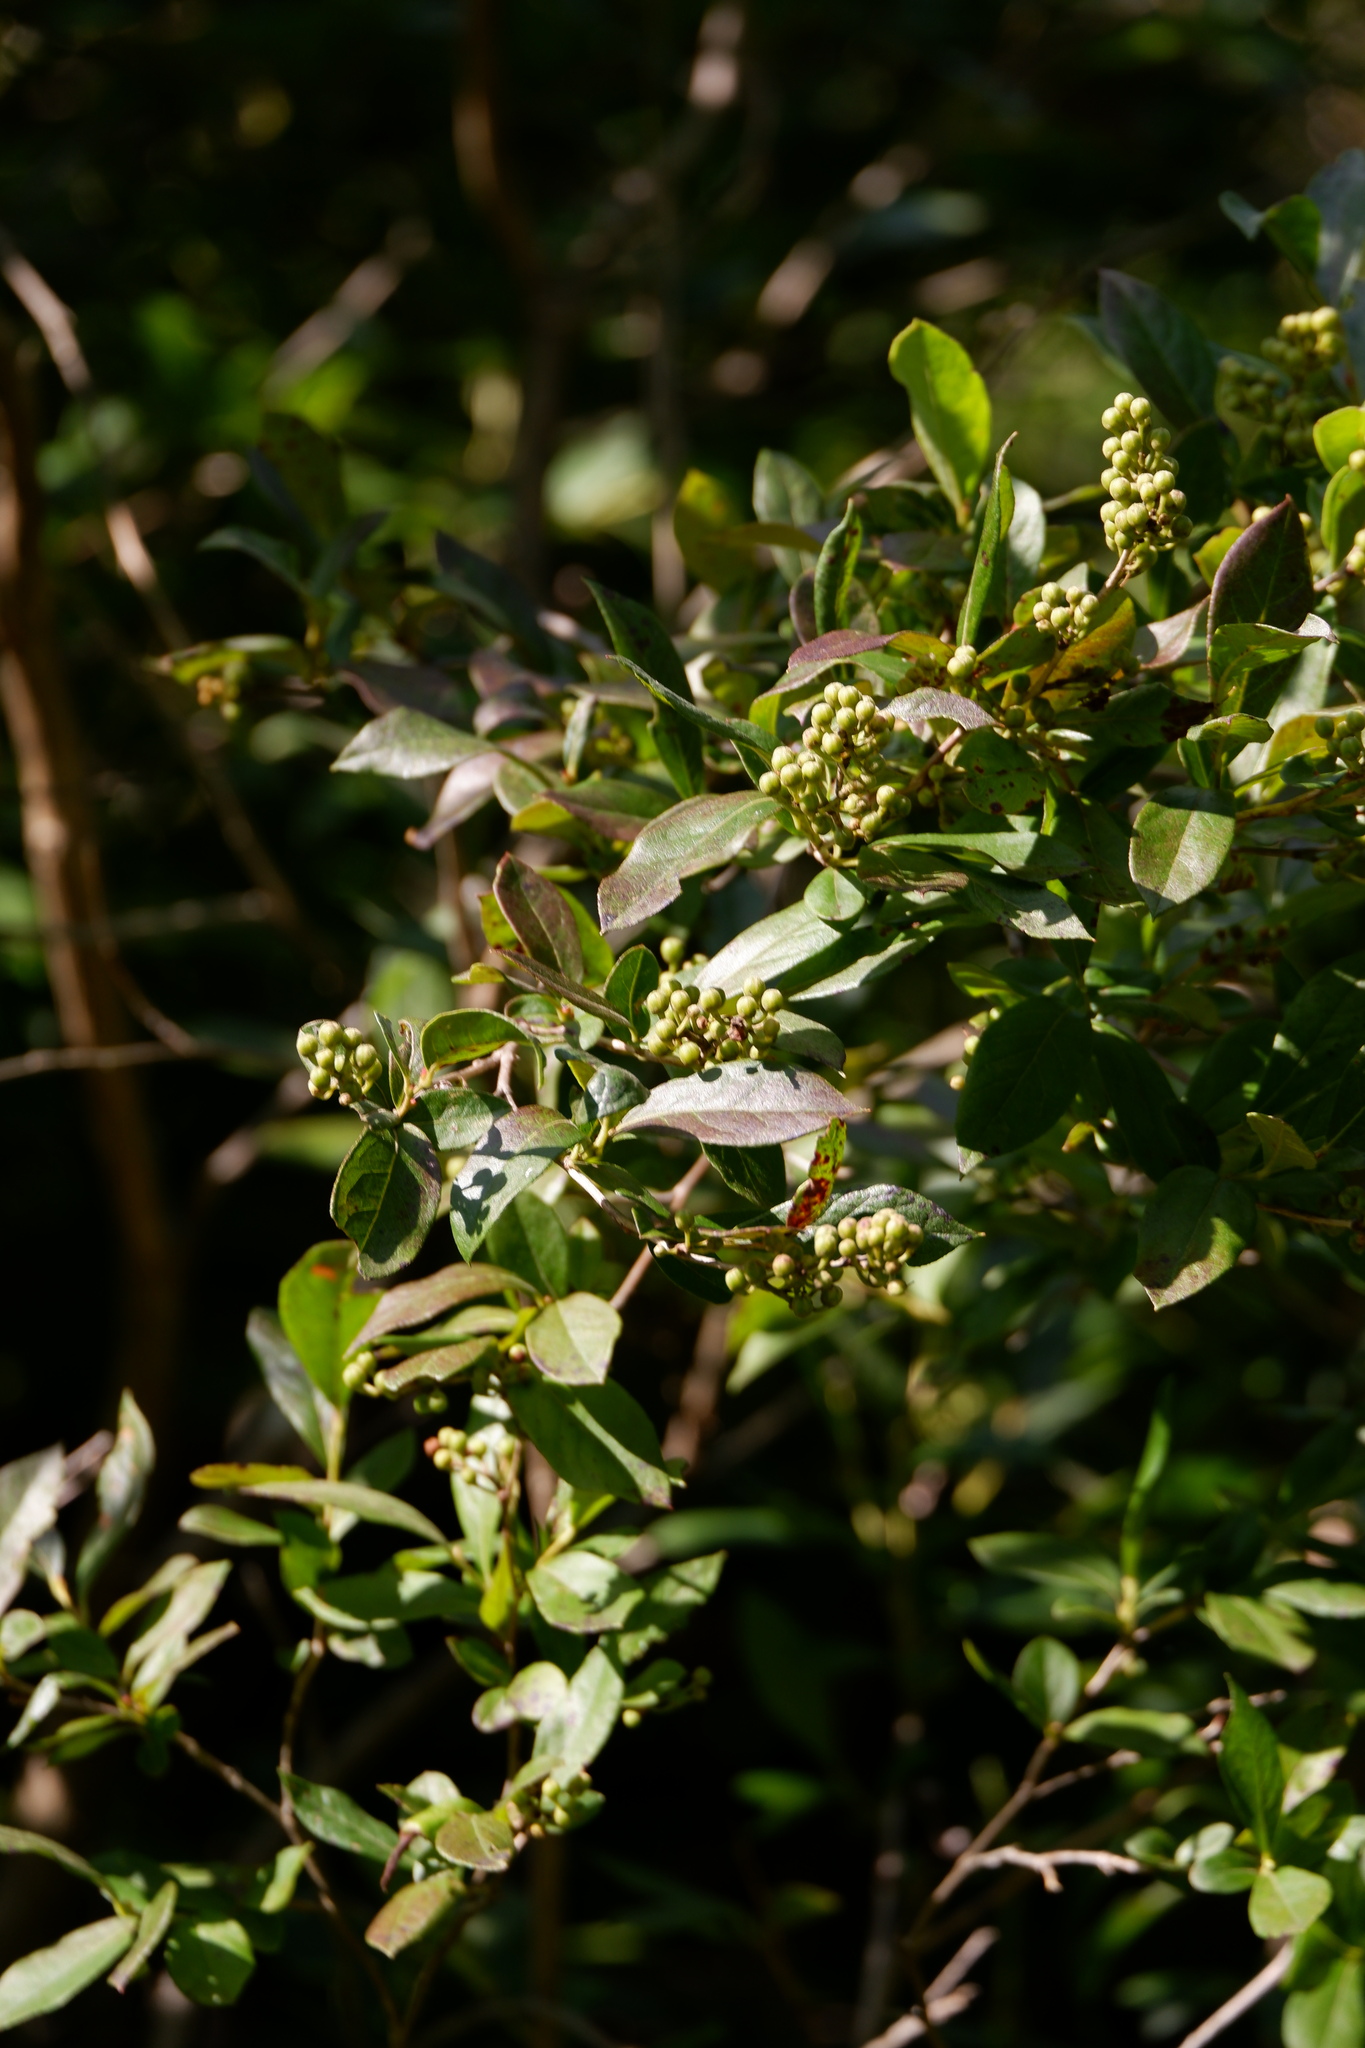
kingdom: Plantae
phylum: Tracheophyta
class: Magnoliopsida
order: Ericales
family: Ericaceae
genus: Lyonia
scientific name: Lyonia ligustrina
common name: Maleberry
